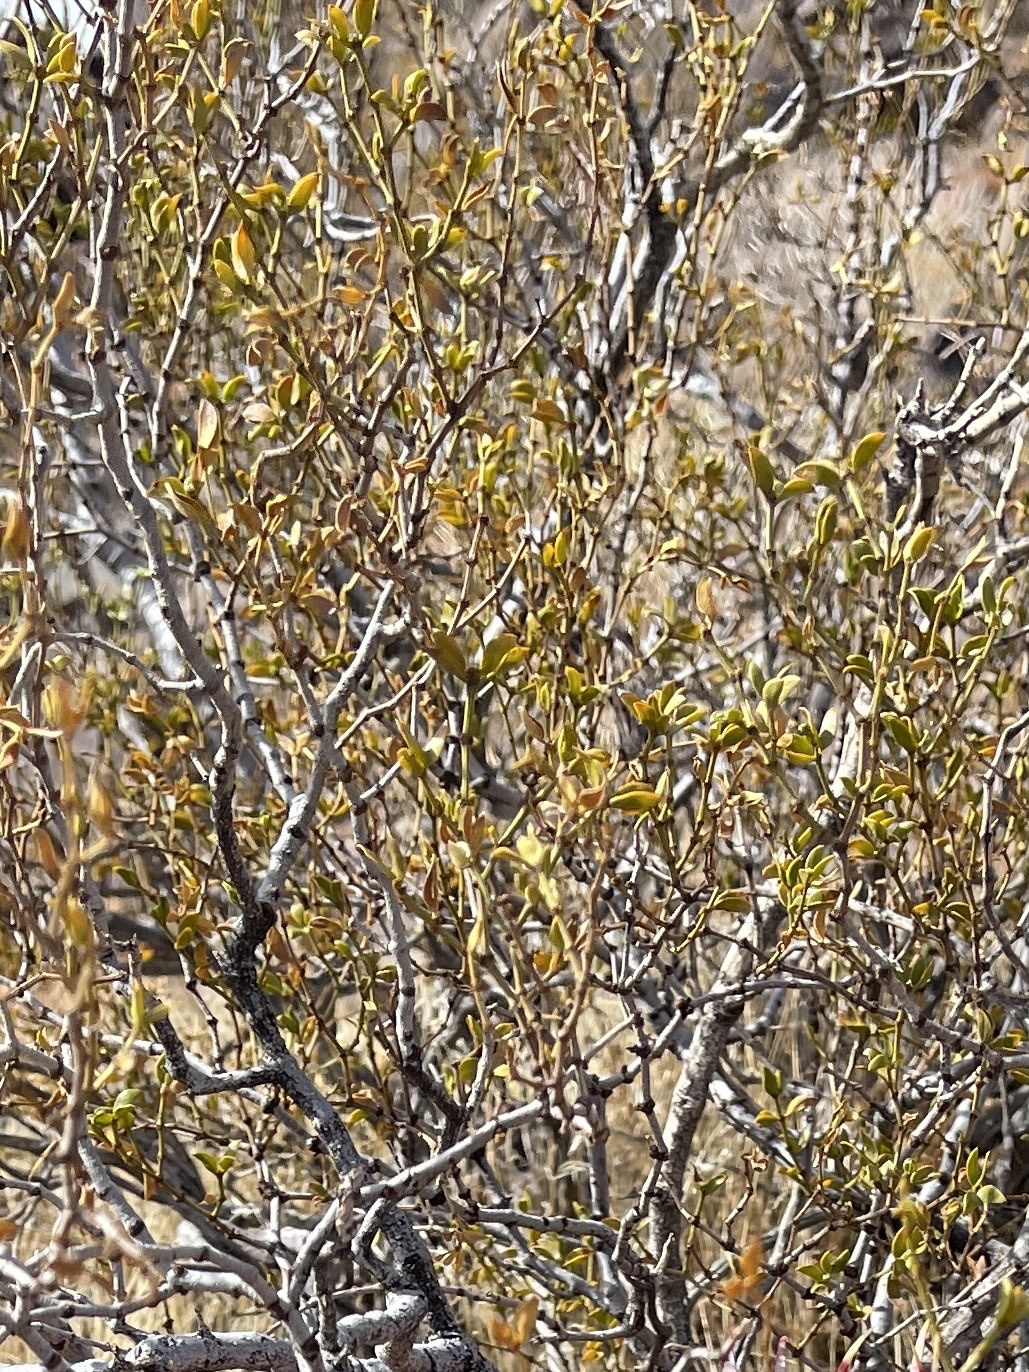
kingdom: Plantae
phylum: Tracheophyta
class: Magnoliopsida
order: Zygophyllales
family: Zygophyllaceae
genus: Larrea
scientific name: Larrea tridentata
